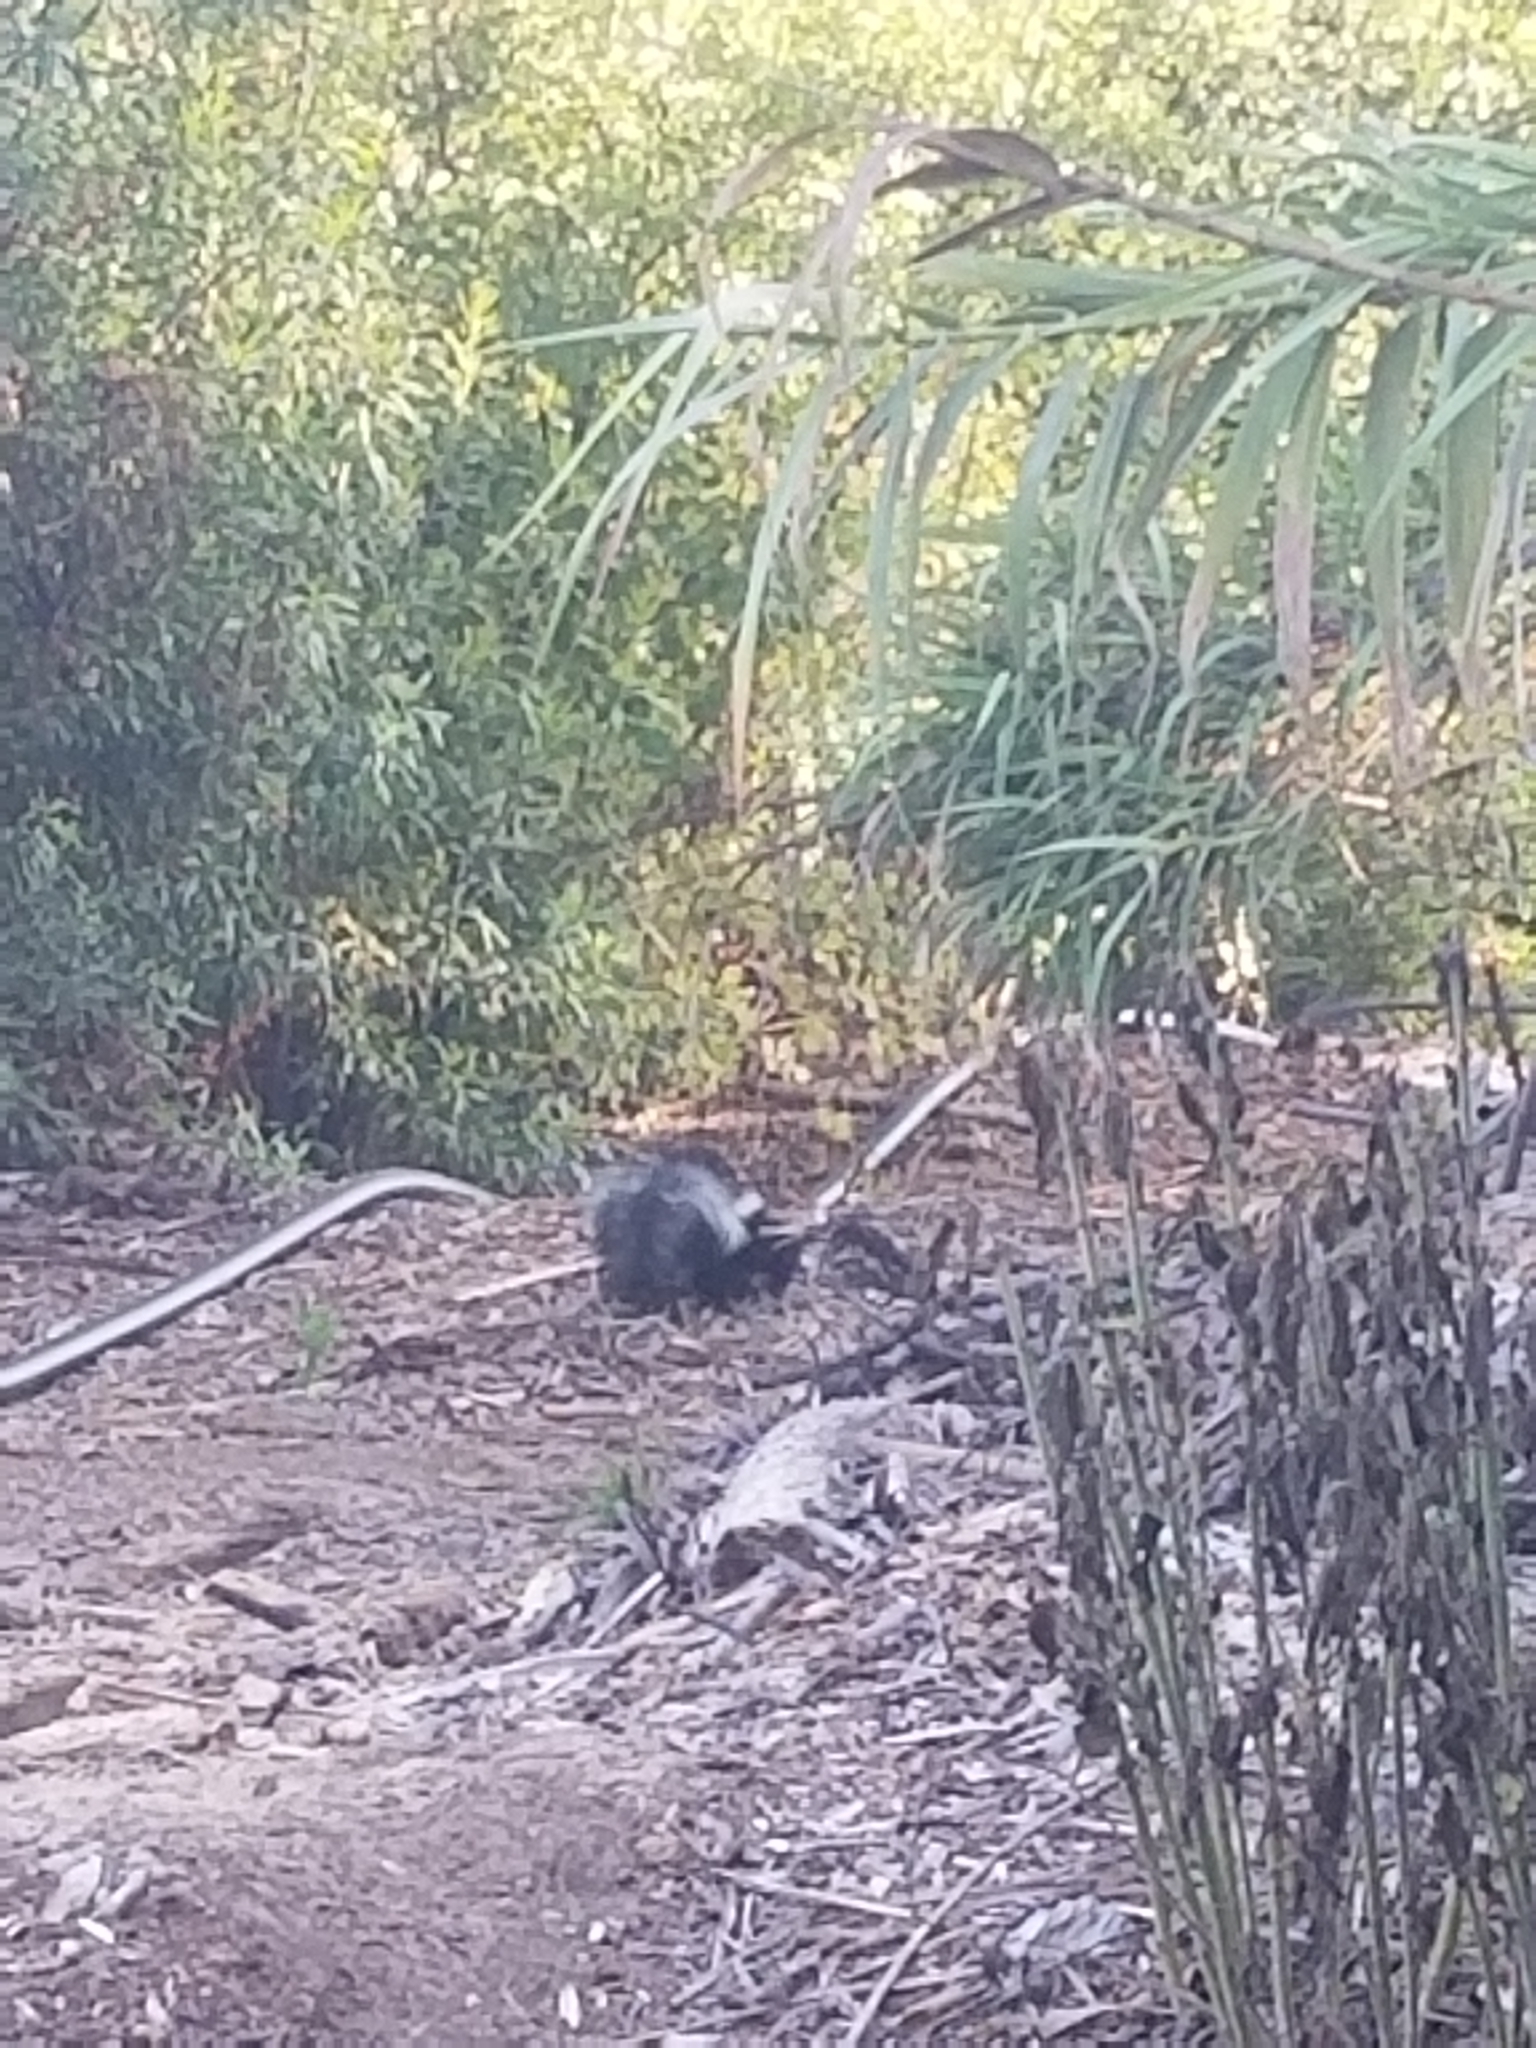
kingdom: Animalia
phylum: Chordata
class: Mammalia
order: Carnivora
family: Mephitidae
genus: Mephitis
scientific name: Mephitis mephitis
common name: Striped skunk
